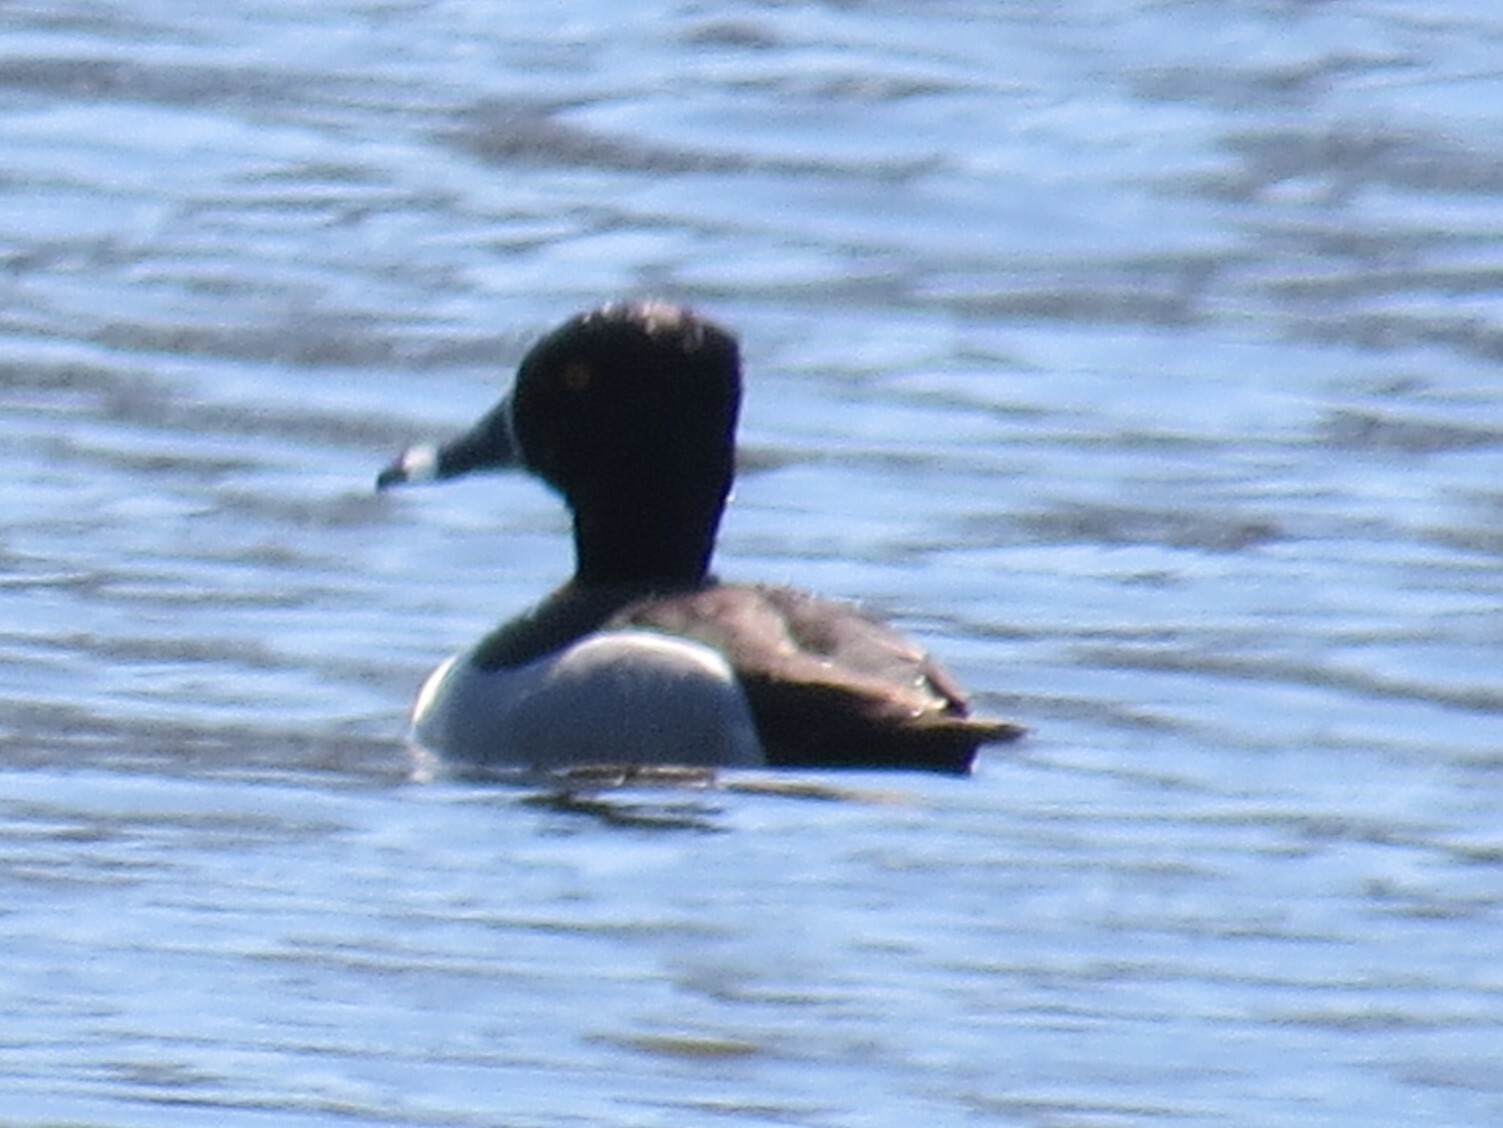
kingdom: Animalia
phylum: Chordata
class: Aves
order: Anseriformes
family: Anatidae
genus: Aythya
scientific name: Aythya collaris
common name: Ring-necked duck
